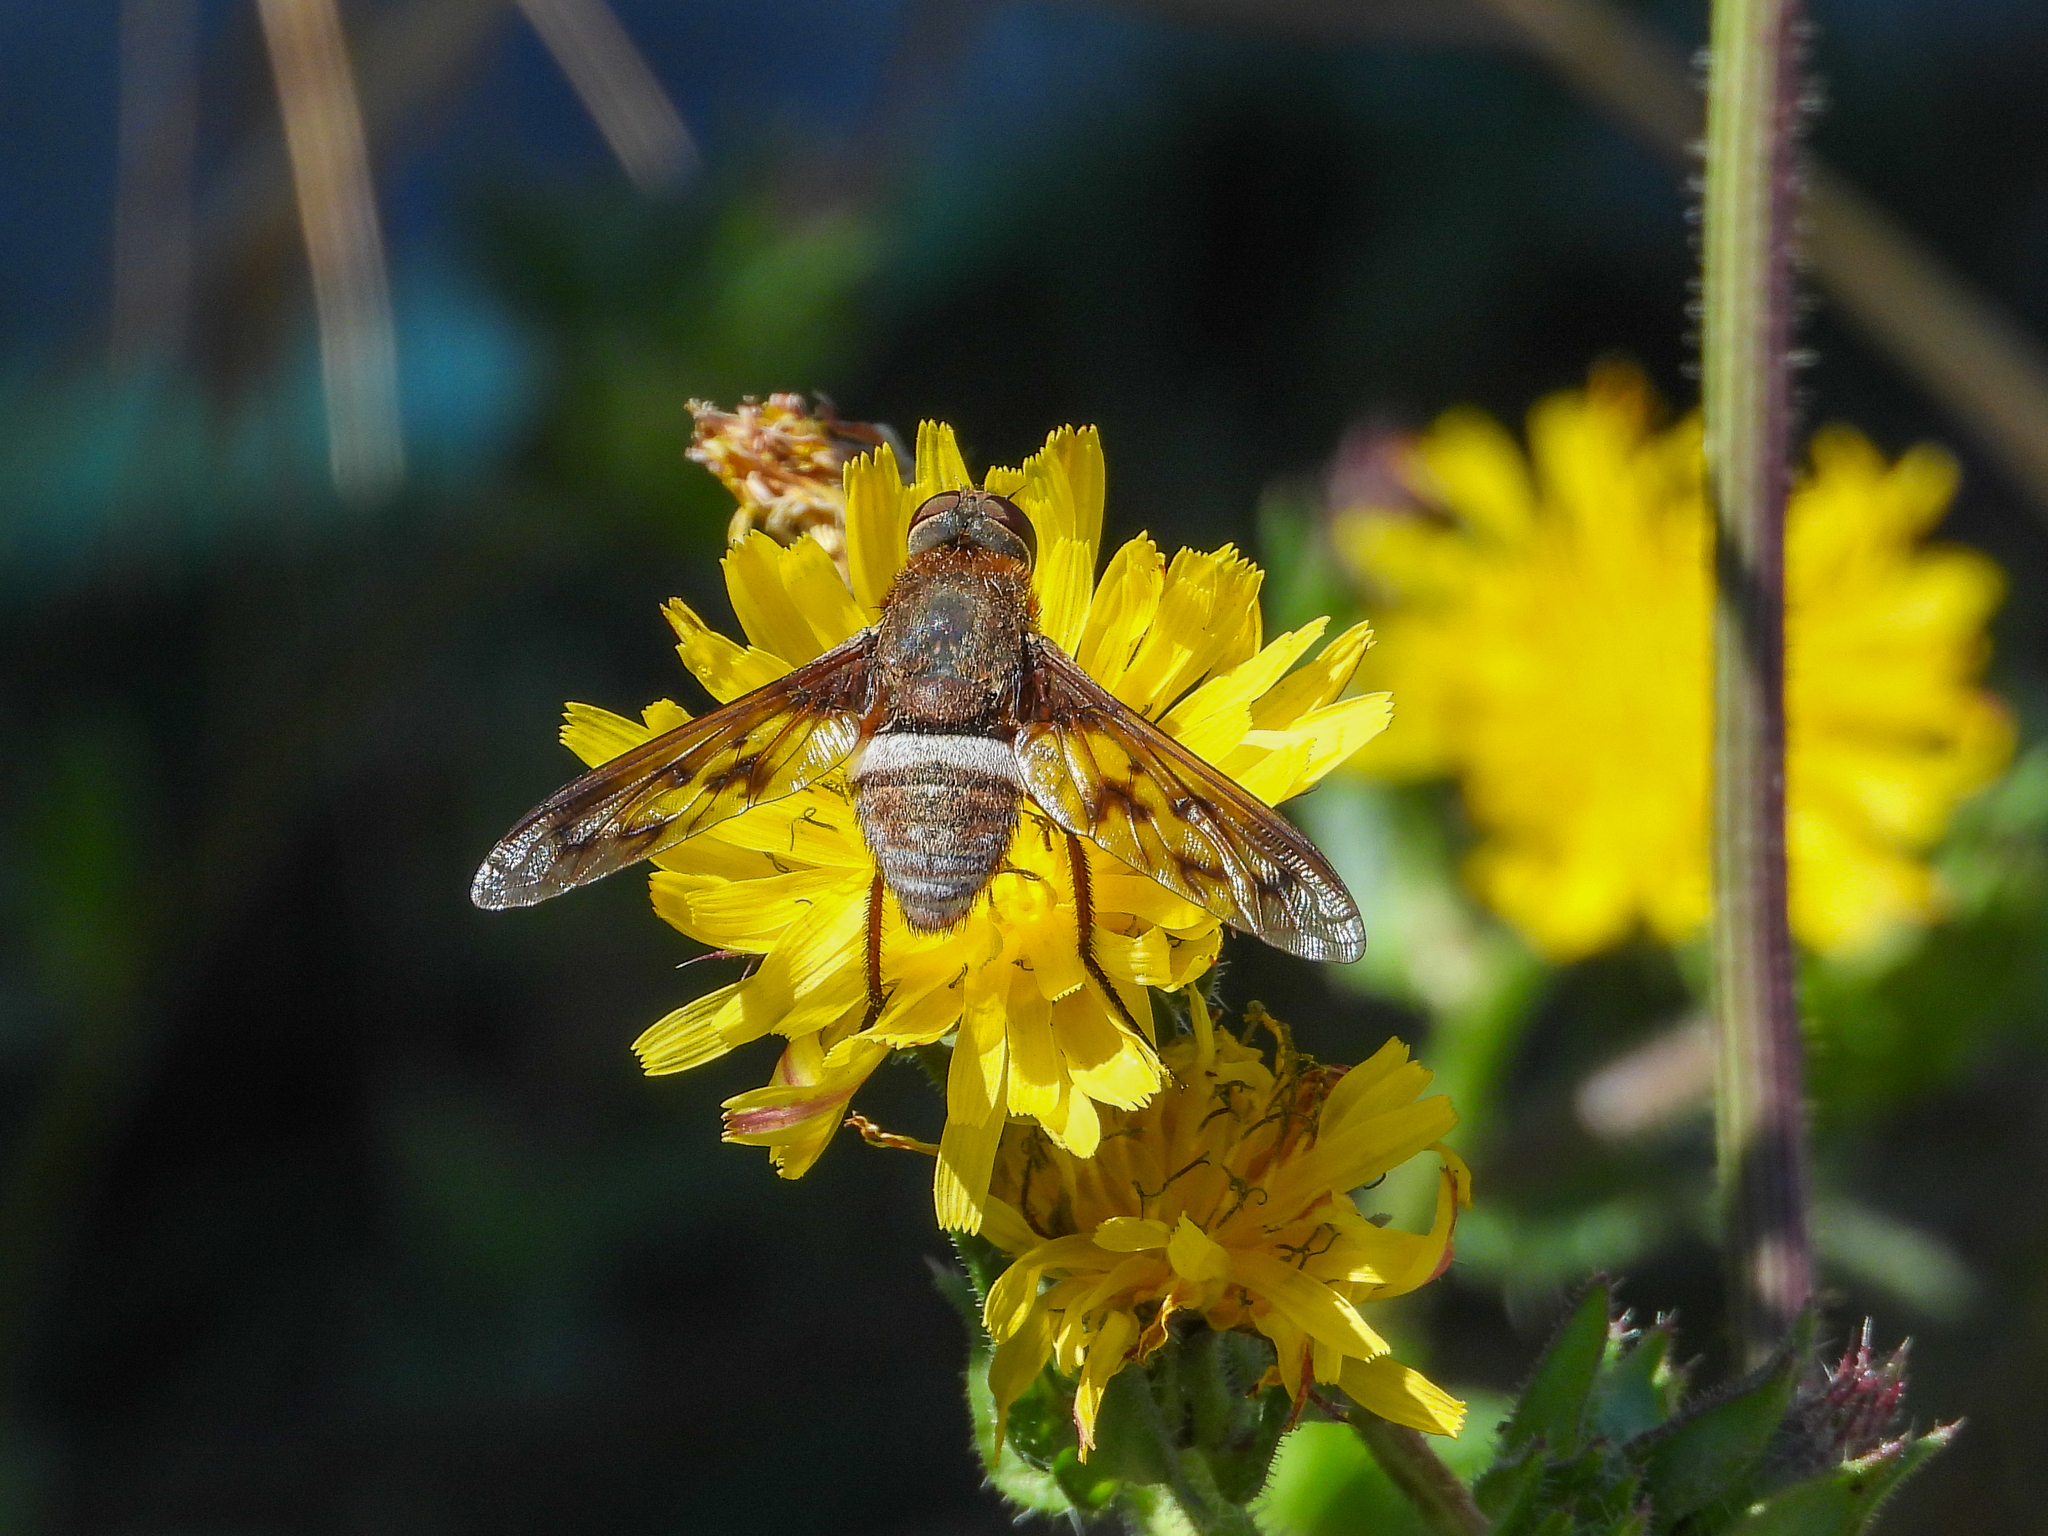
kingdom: Animalia
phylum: Arthropoda
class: Insecta
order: Diptera
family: Bombyliidae
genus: Nyia
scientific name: Nyia gazophylax
